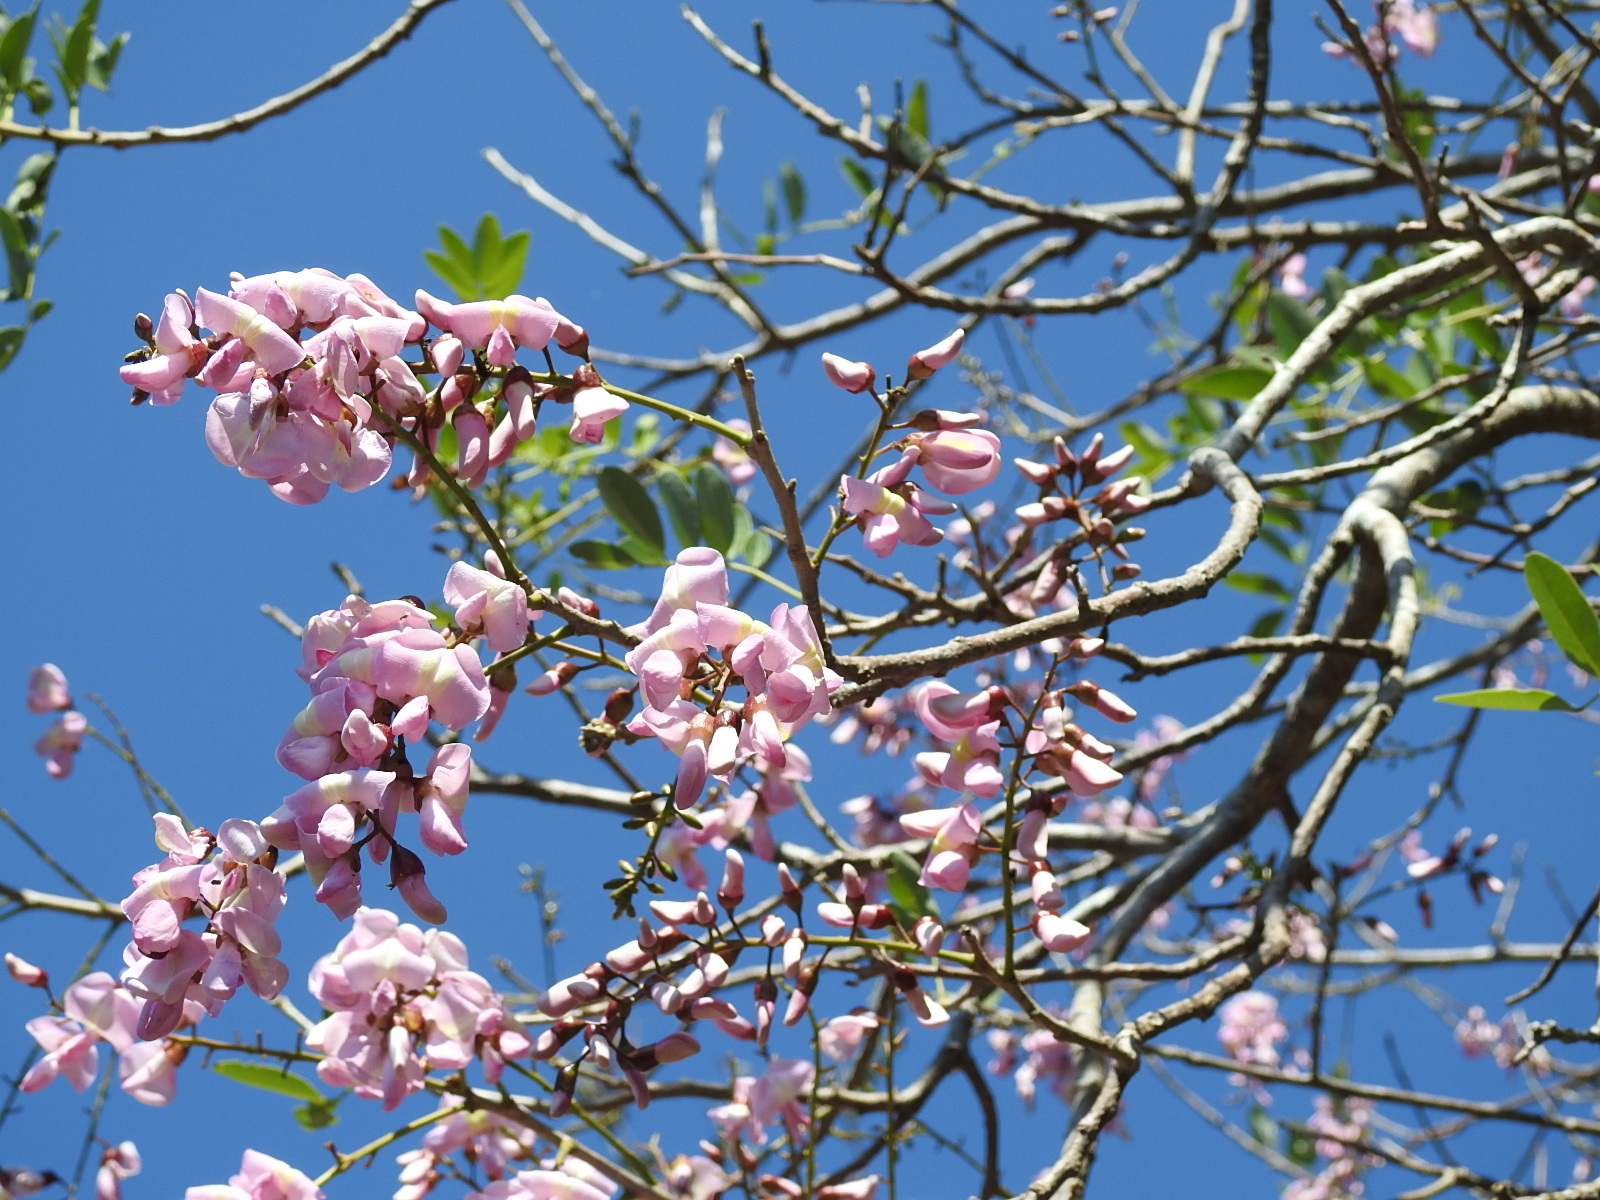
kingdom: Plantae
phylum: Tracheophyta
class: Magnoliopsida
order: Fabales
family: Fabaceae
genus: Gliricidia
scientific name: Gliricidia sepium
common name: Quickstick
